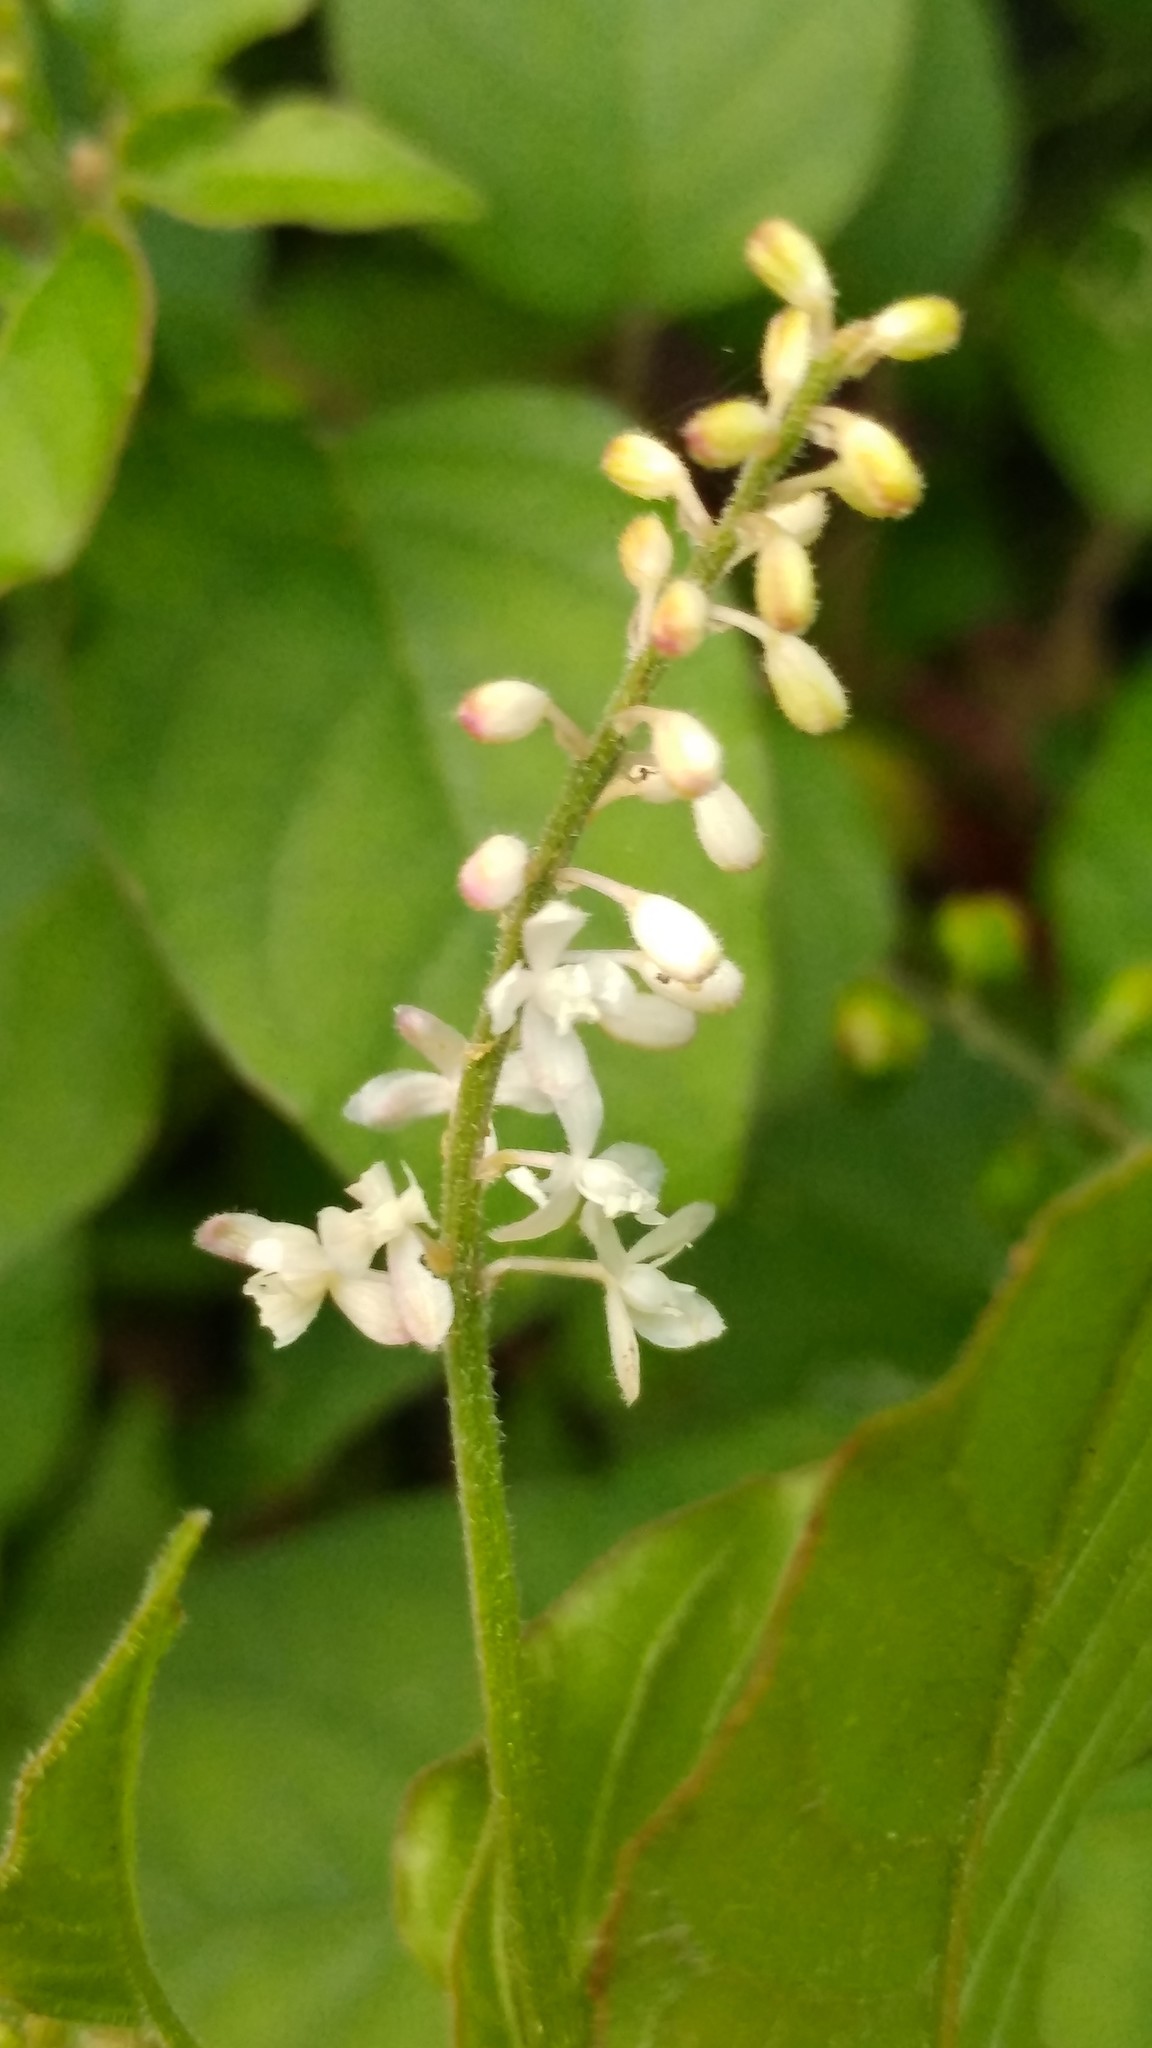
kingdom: Plantae
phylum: Tracheophyta
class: Magnoliopsida
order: Caryophyllales
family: Phytolaccaceae
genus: Rivina
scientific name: Rivina humilis
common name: Rougeplant
